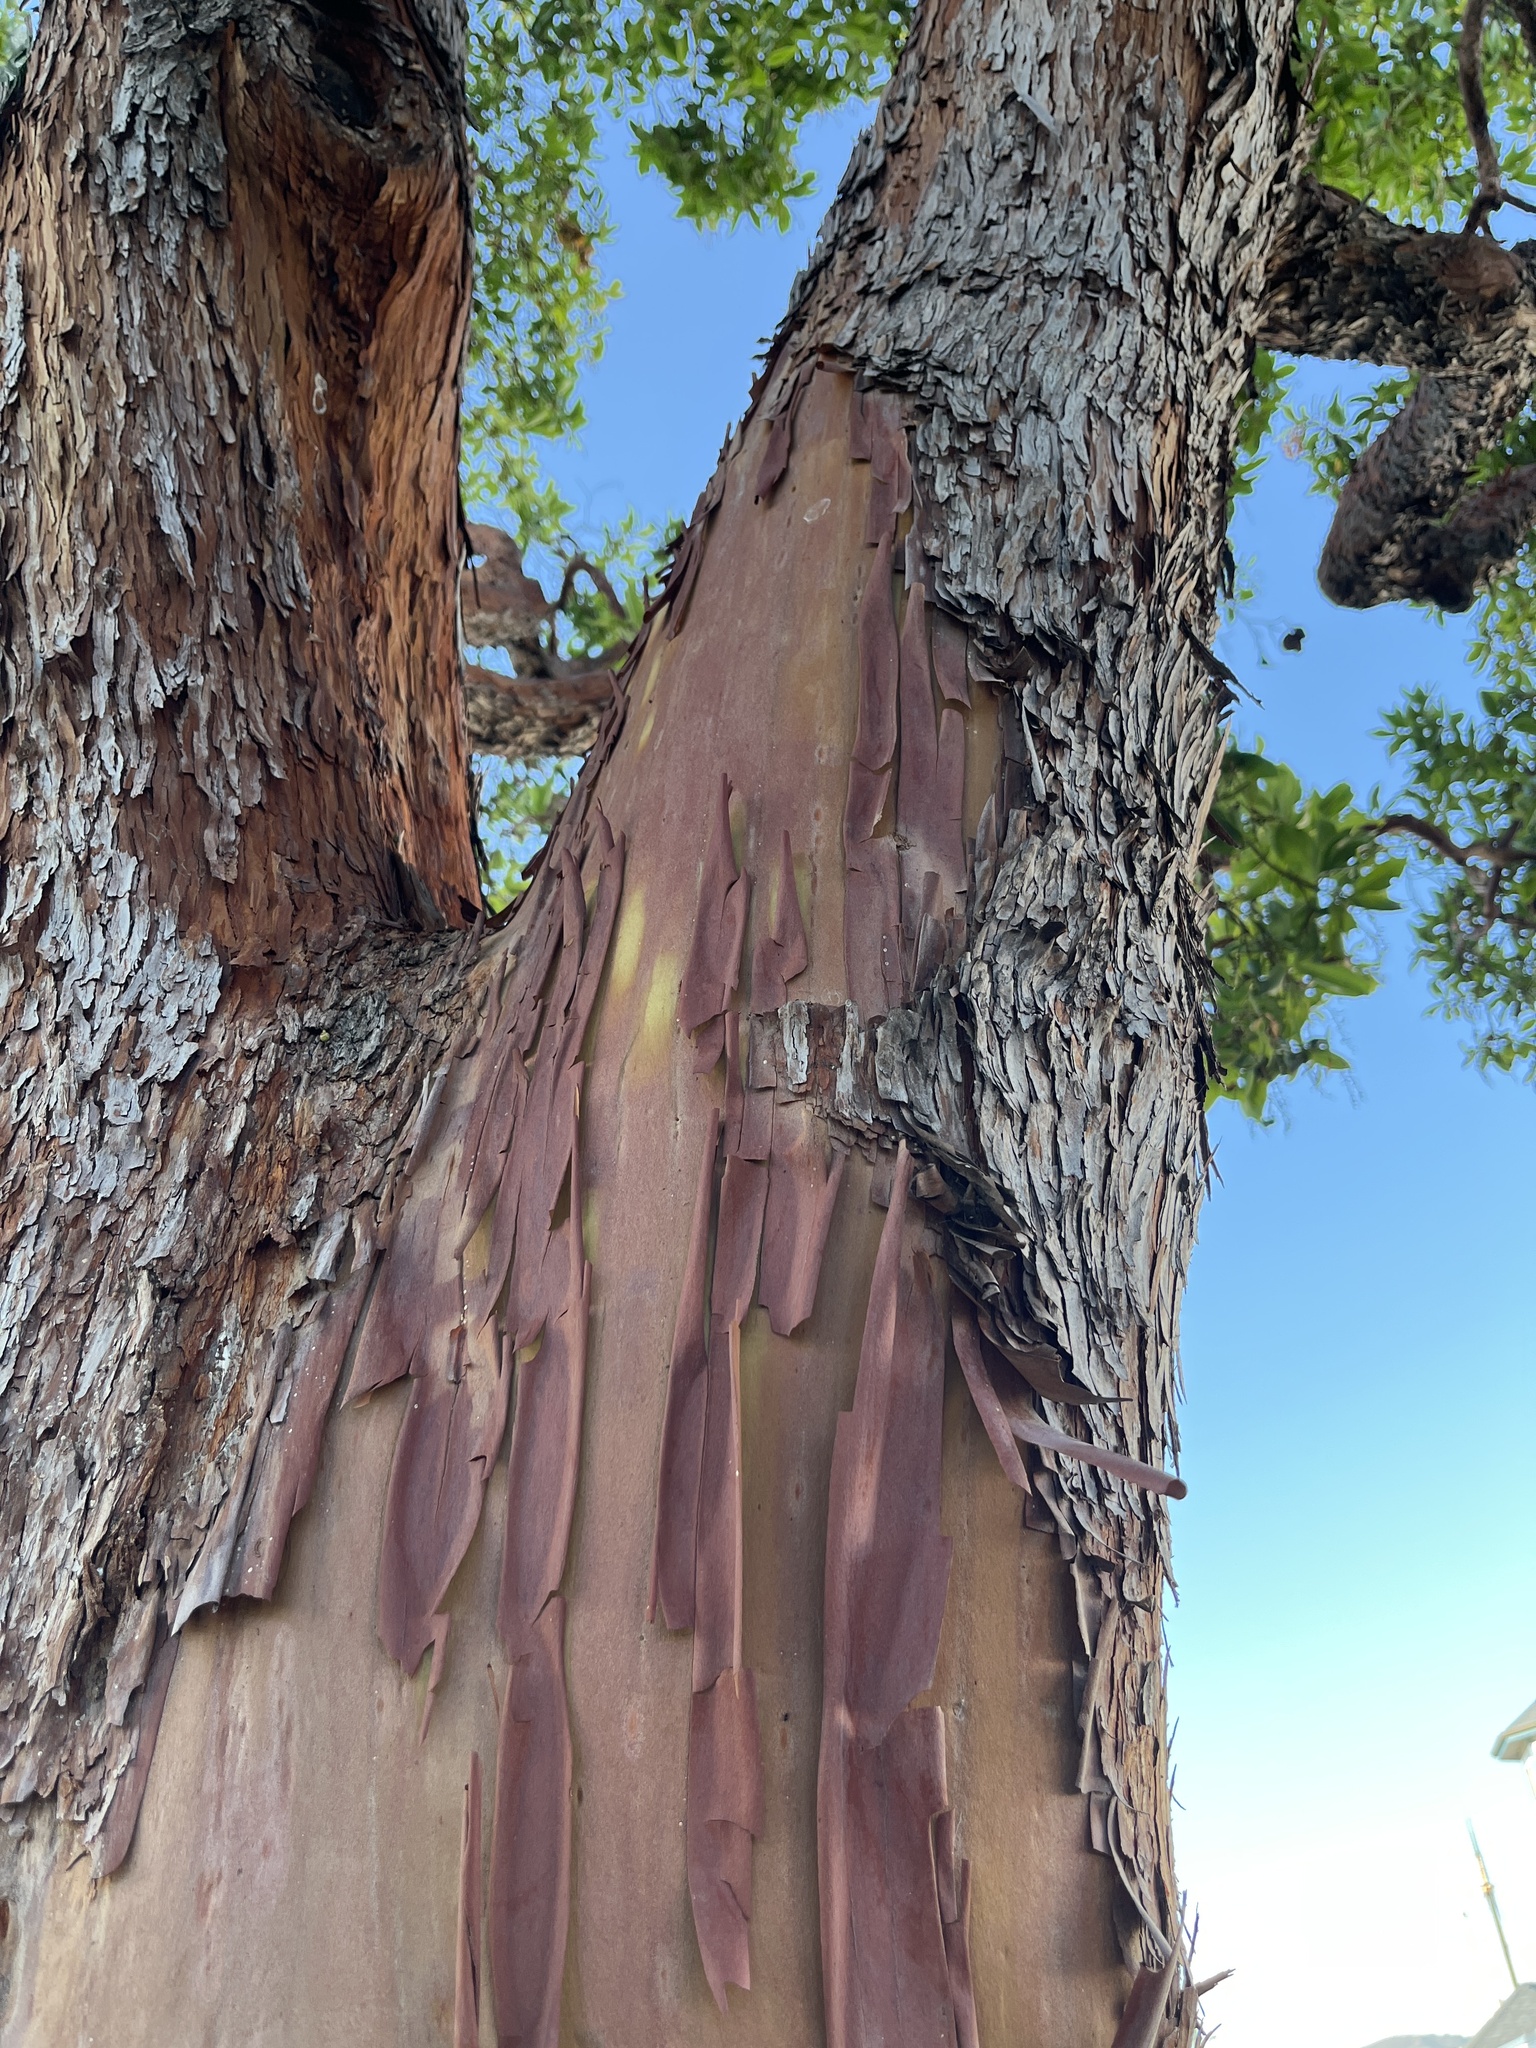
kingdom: Plantae
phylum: Tracheophyta
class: Magnoliopsida
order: Ericales
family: Ericaceae
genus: Arbutus
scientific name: Arbutus menziesii
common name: Pacific madrone
